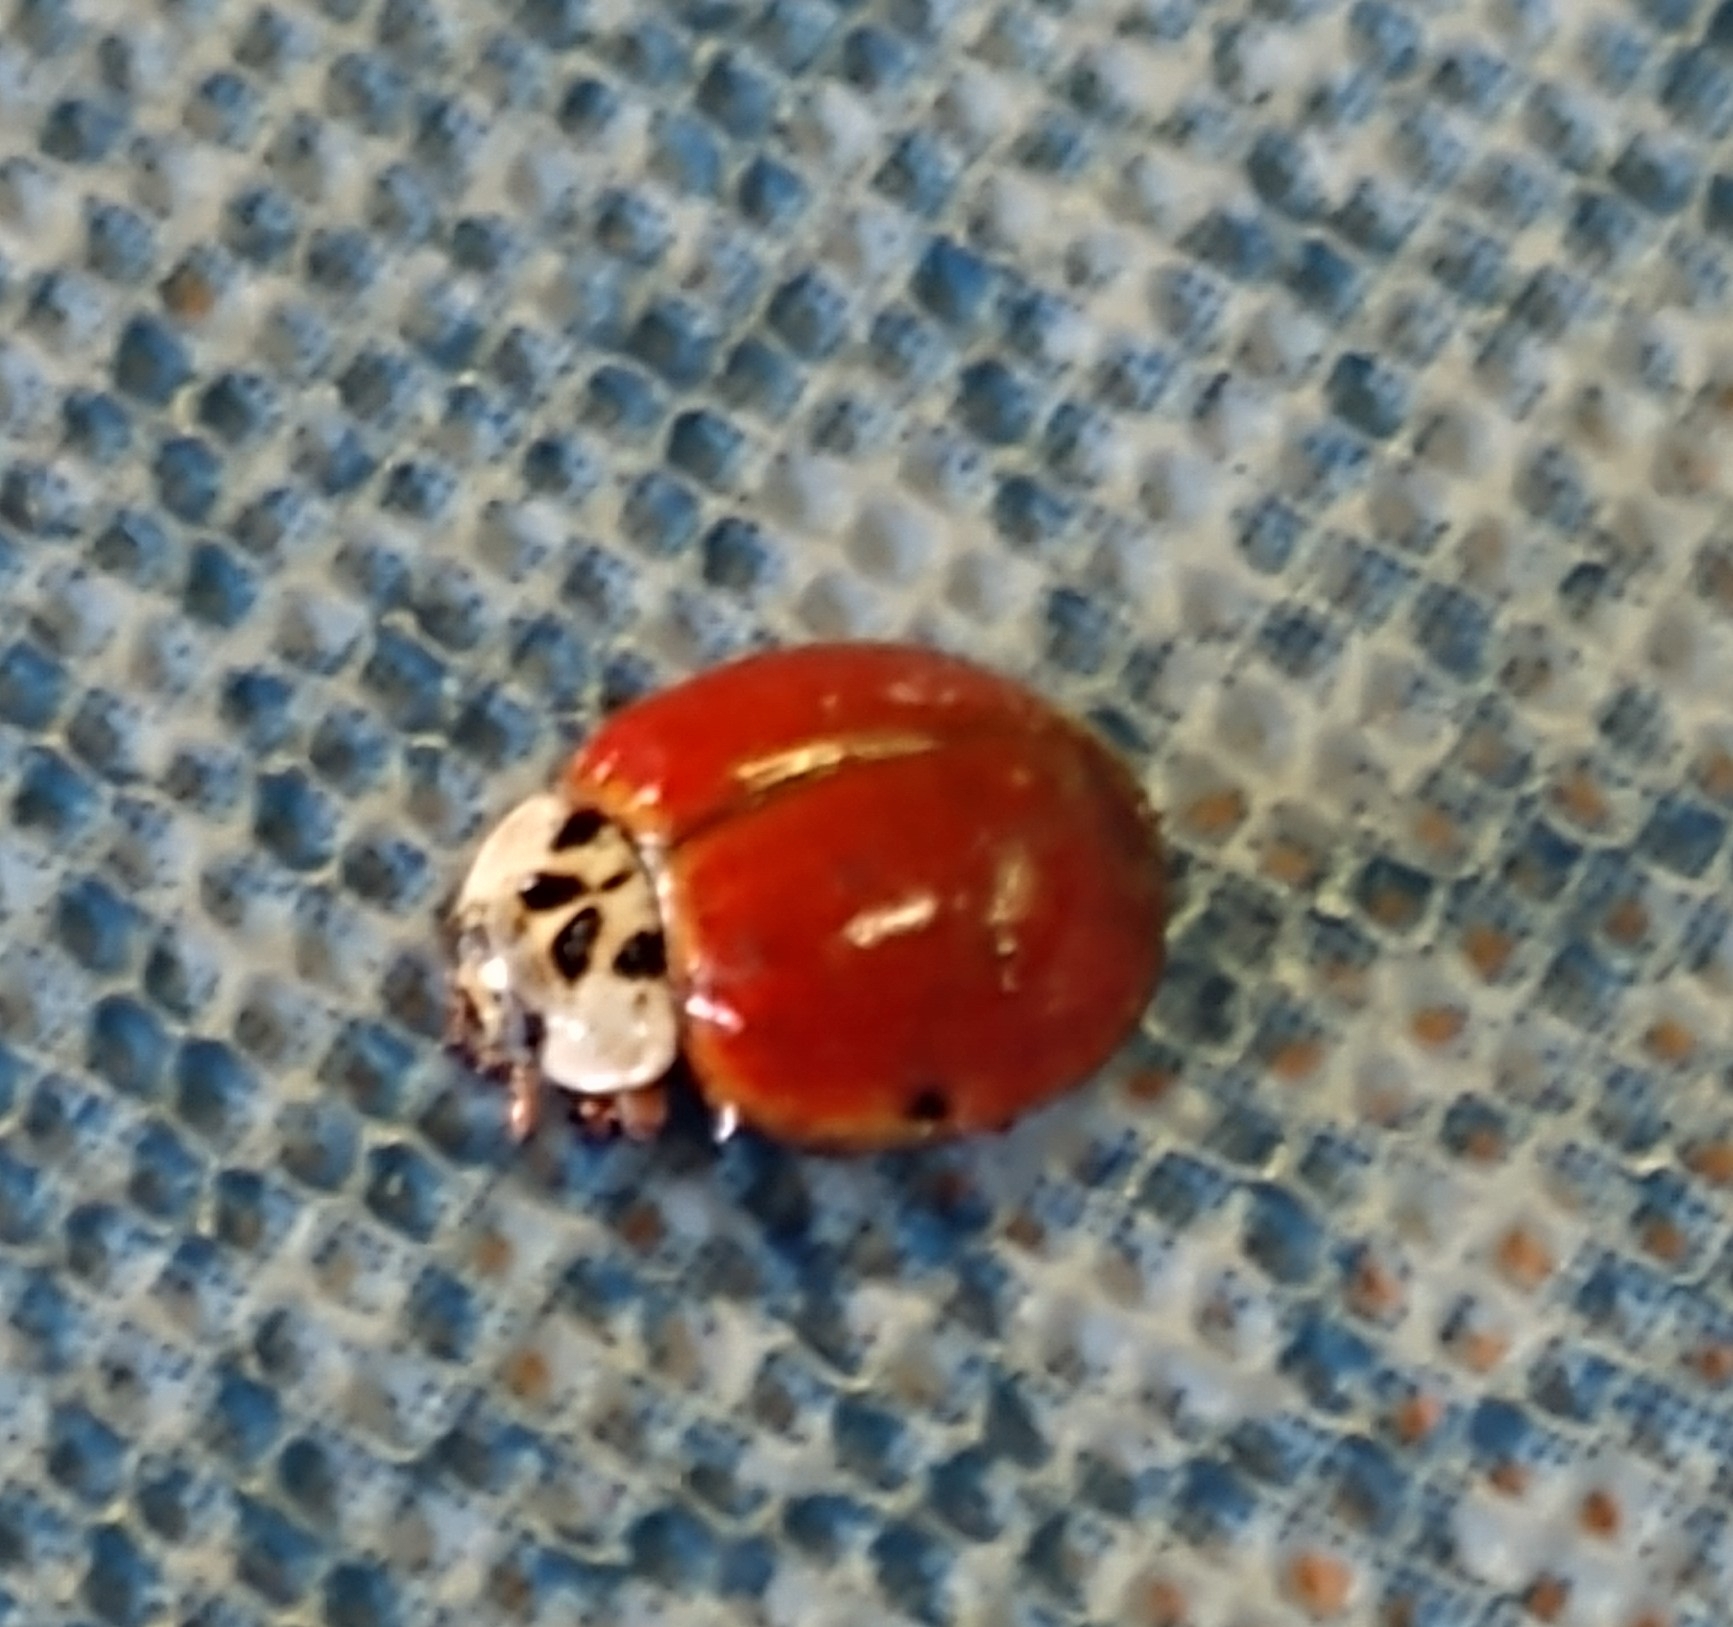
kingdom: Animalia
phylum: Arthropoda
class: Insecta
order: Coleoptera
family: Coccinellidae
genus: Harmonia
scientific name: Harmonia axyridis
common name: Harlequin ladybird
